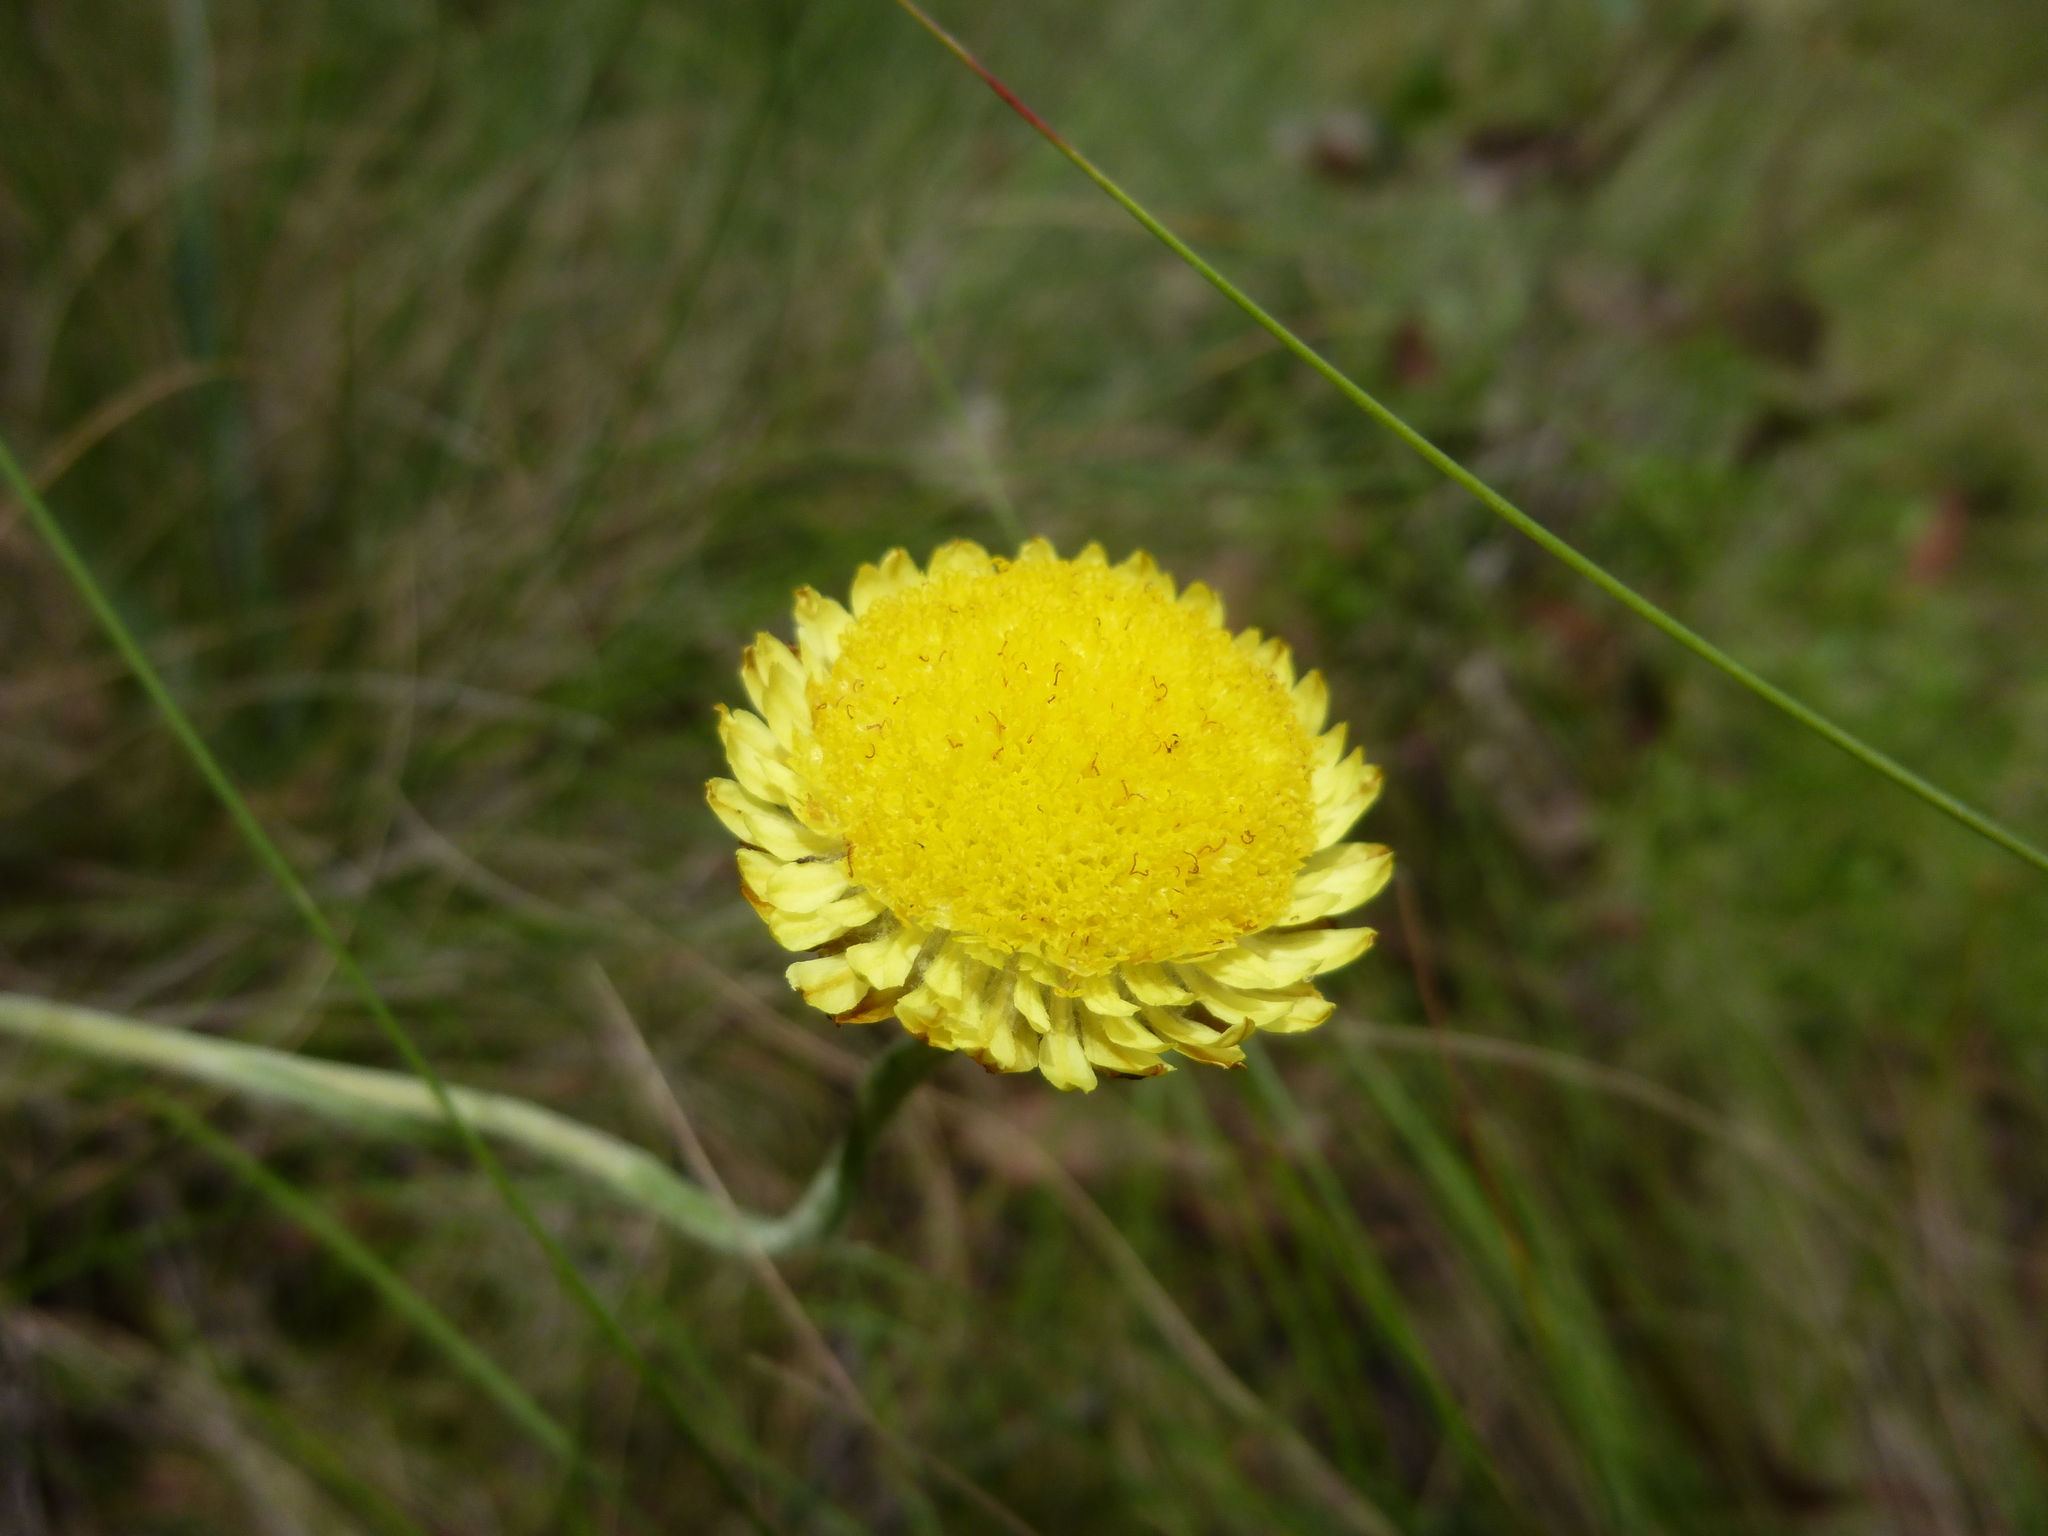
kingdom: Plantae
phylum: Tracheophyta
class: Magnoliopsida
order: Asterales
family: Asteraceae
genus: Coronidium
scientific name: Coronidium scorpioides
